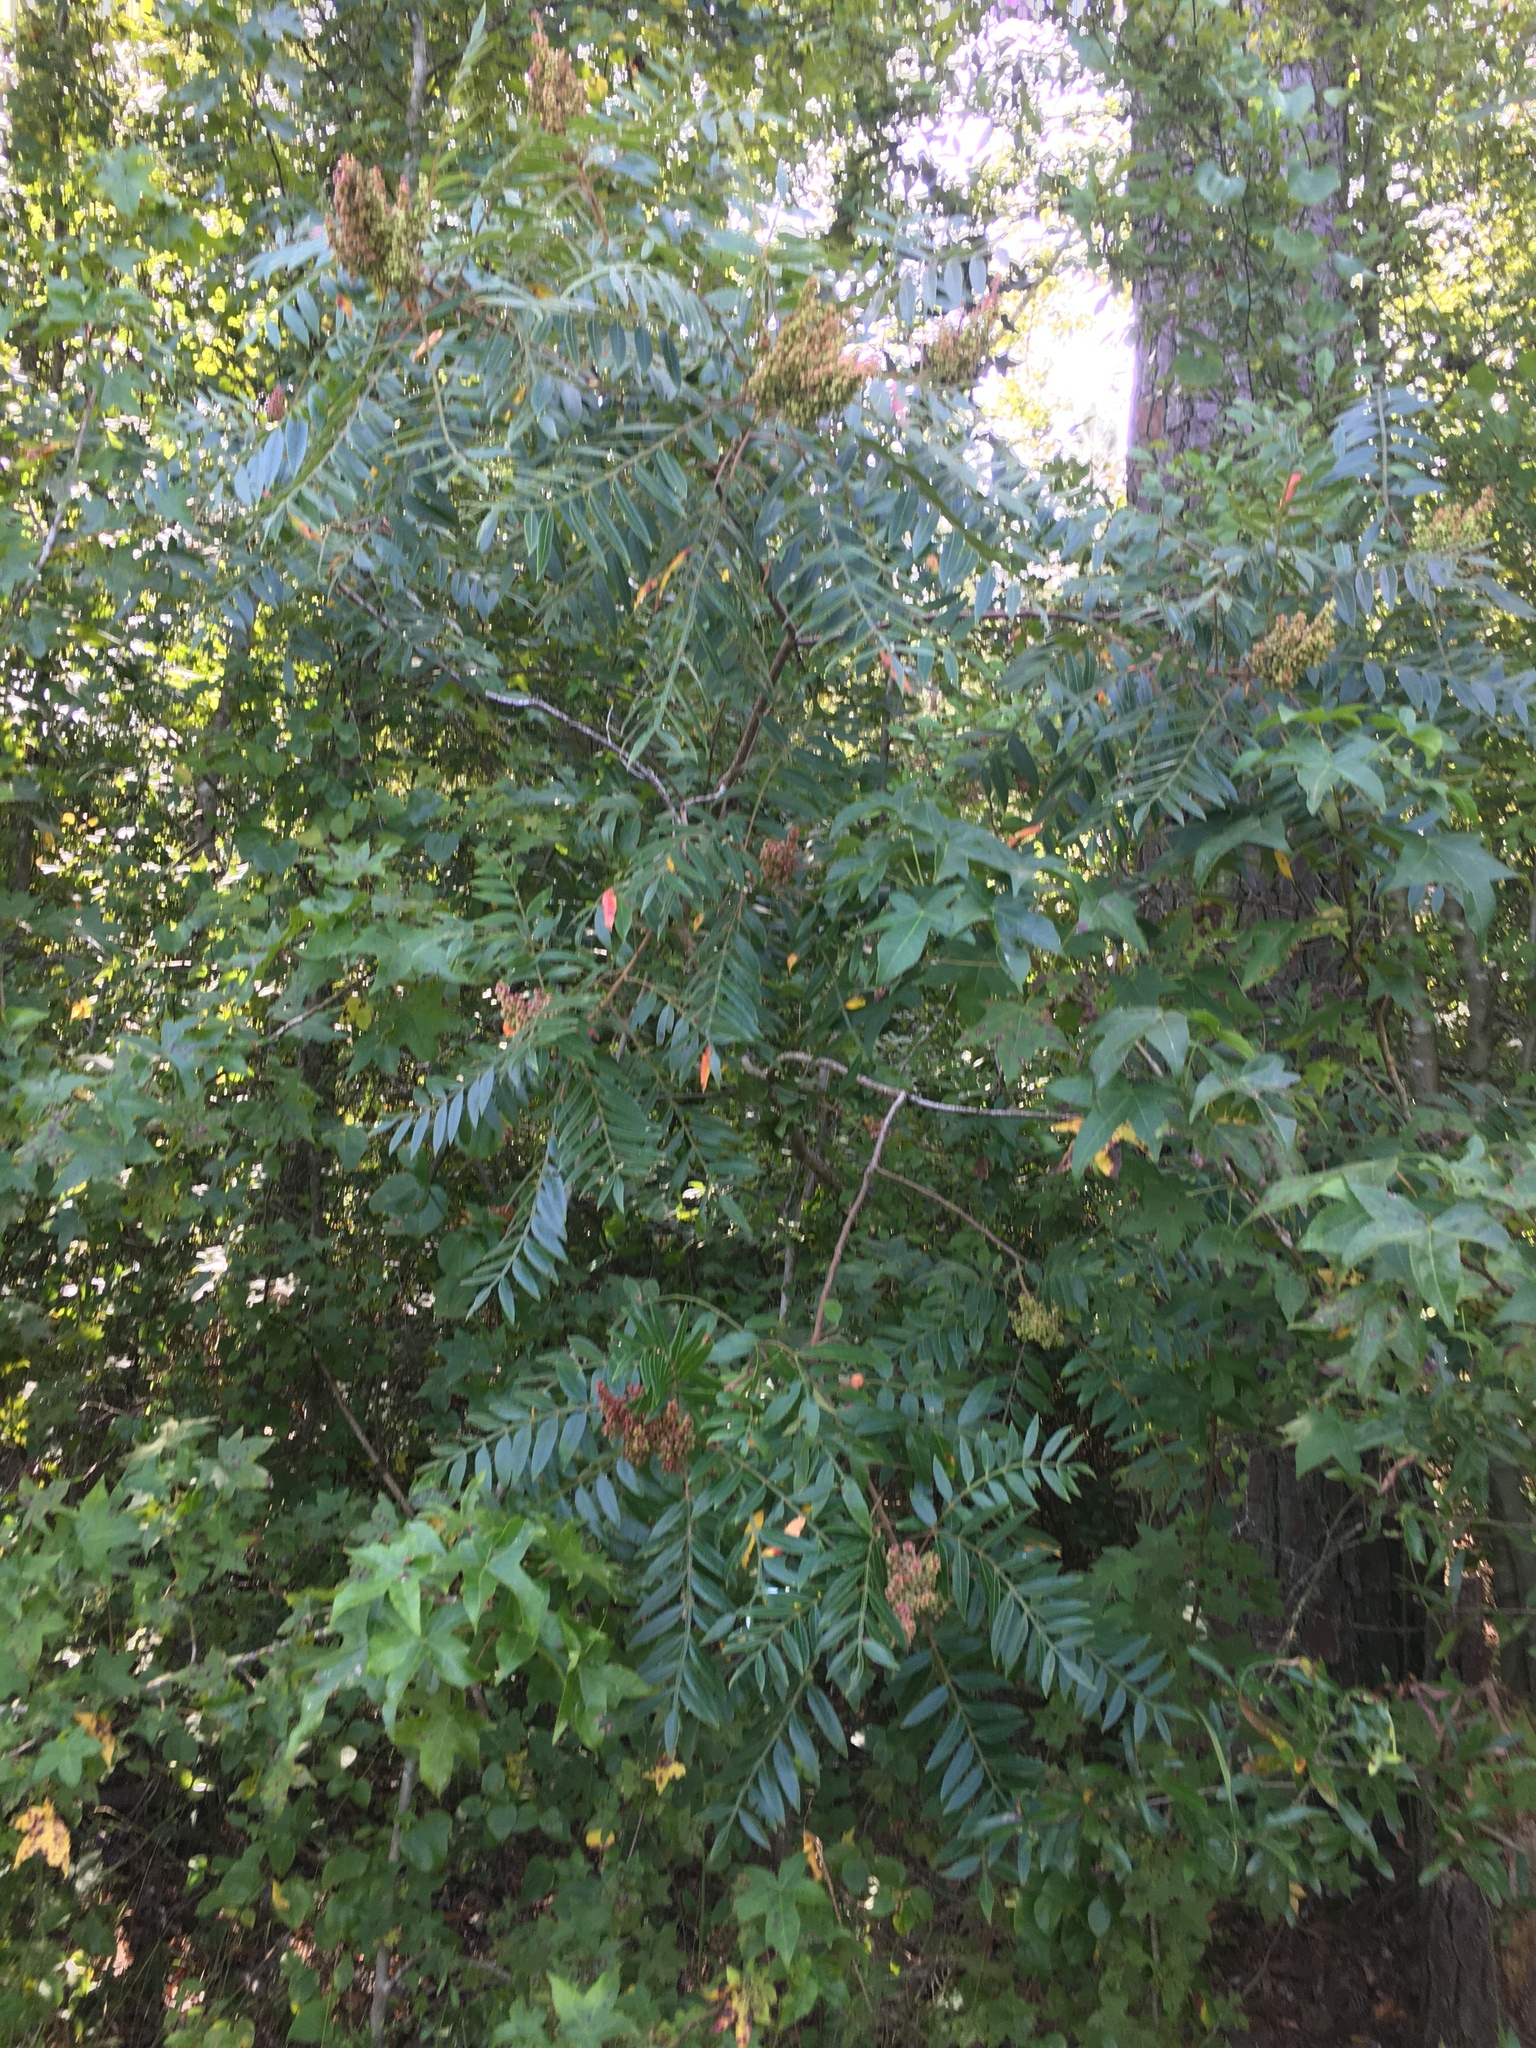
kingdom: Plantae
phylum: Tracheophyta
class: Magnoliopsida
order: Sapindales
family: Anacardiaceae
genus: Rhus
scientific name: Rhus copallina
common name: Shining sumac
